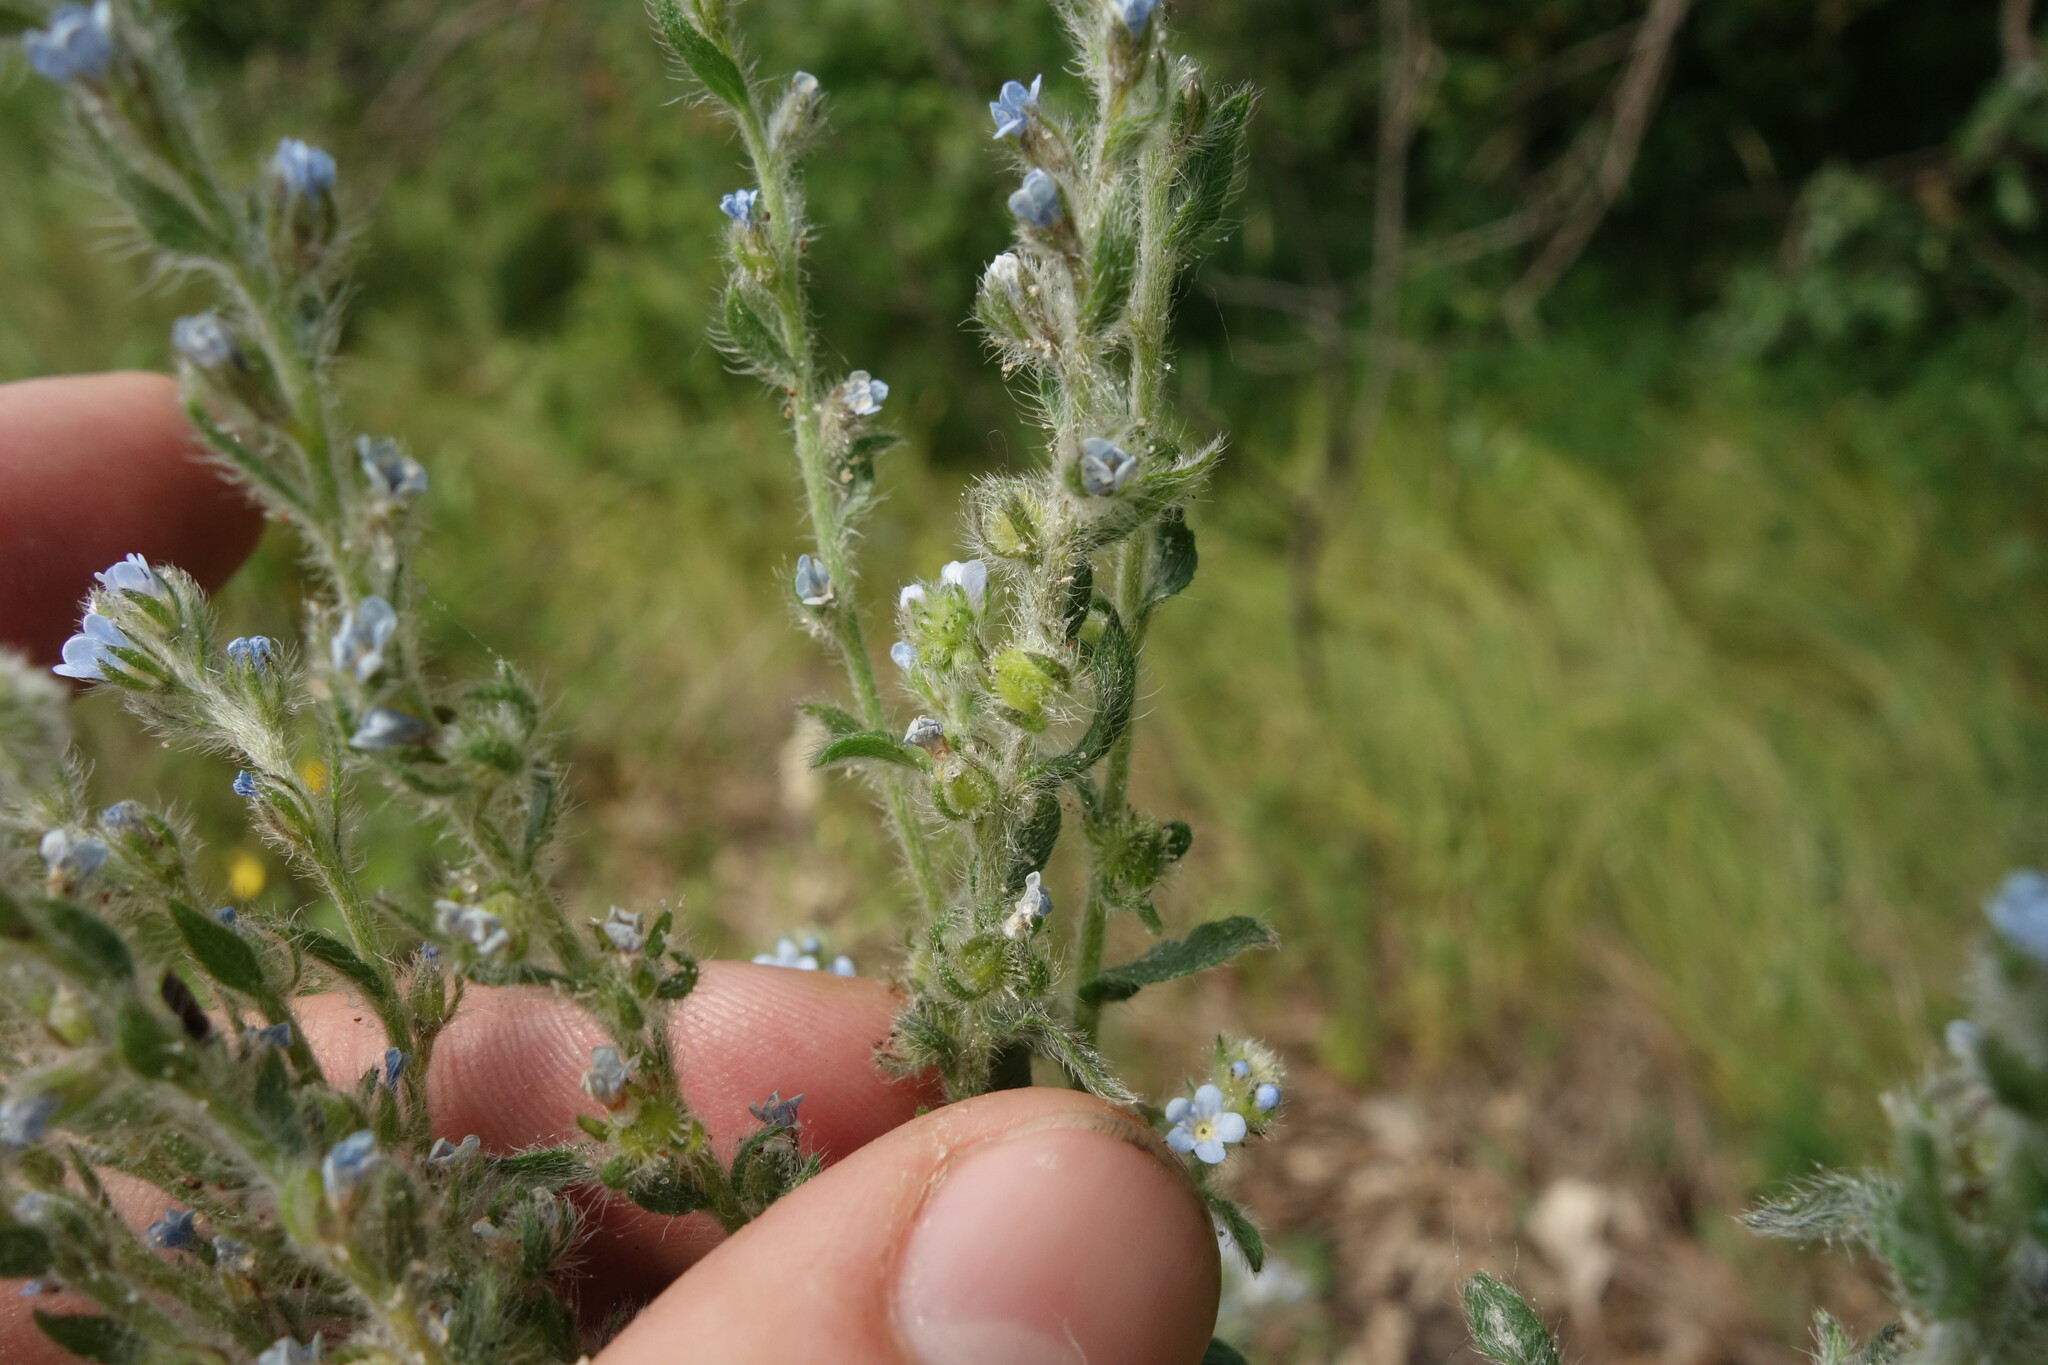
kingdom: Plantae
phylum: Tracheophyta
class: Magnoliopsida
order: Boraginales
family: Boraginaceae
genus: Lappula
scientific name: Lappula squarrosa
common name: European stickseed
